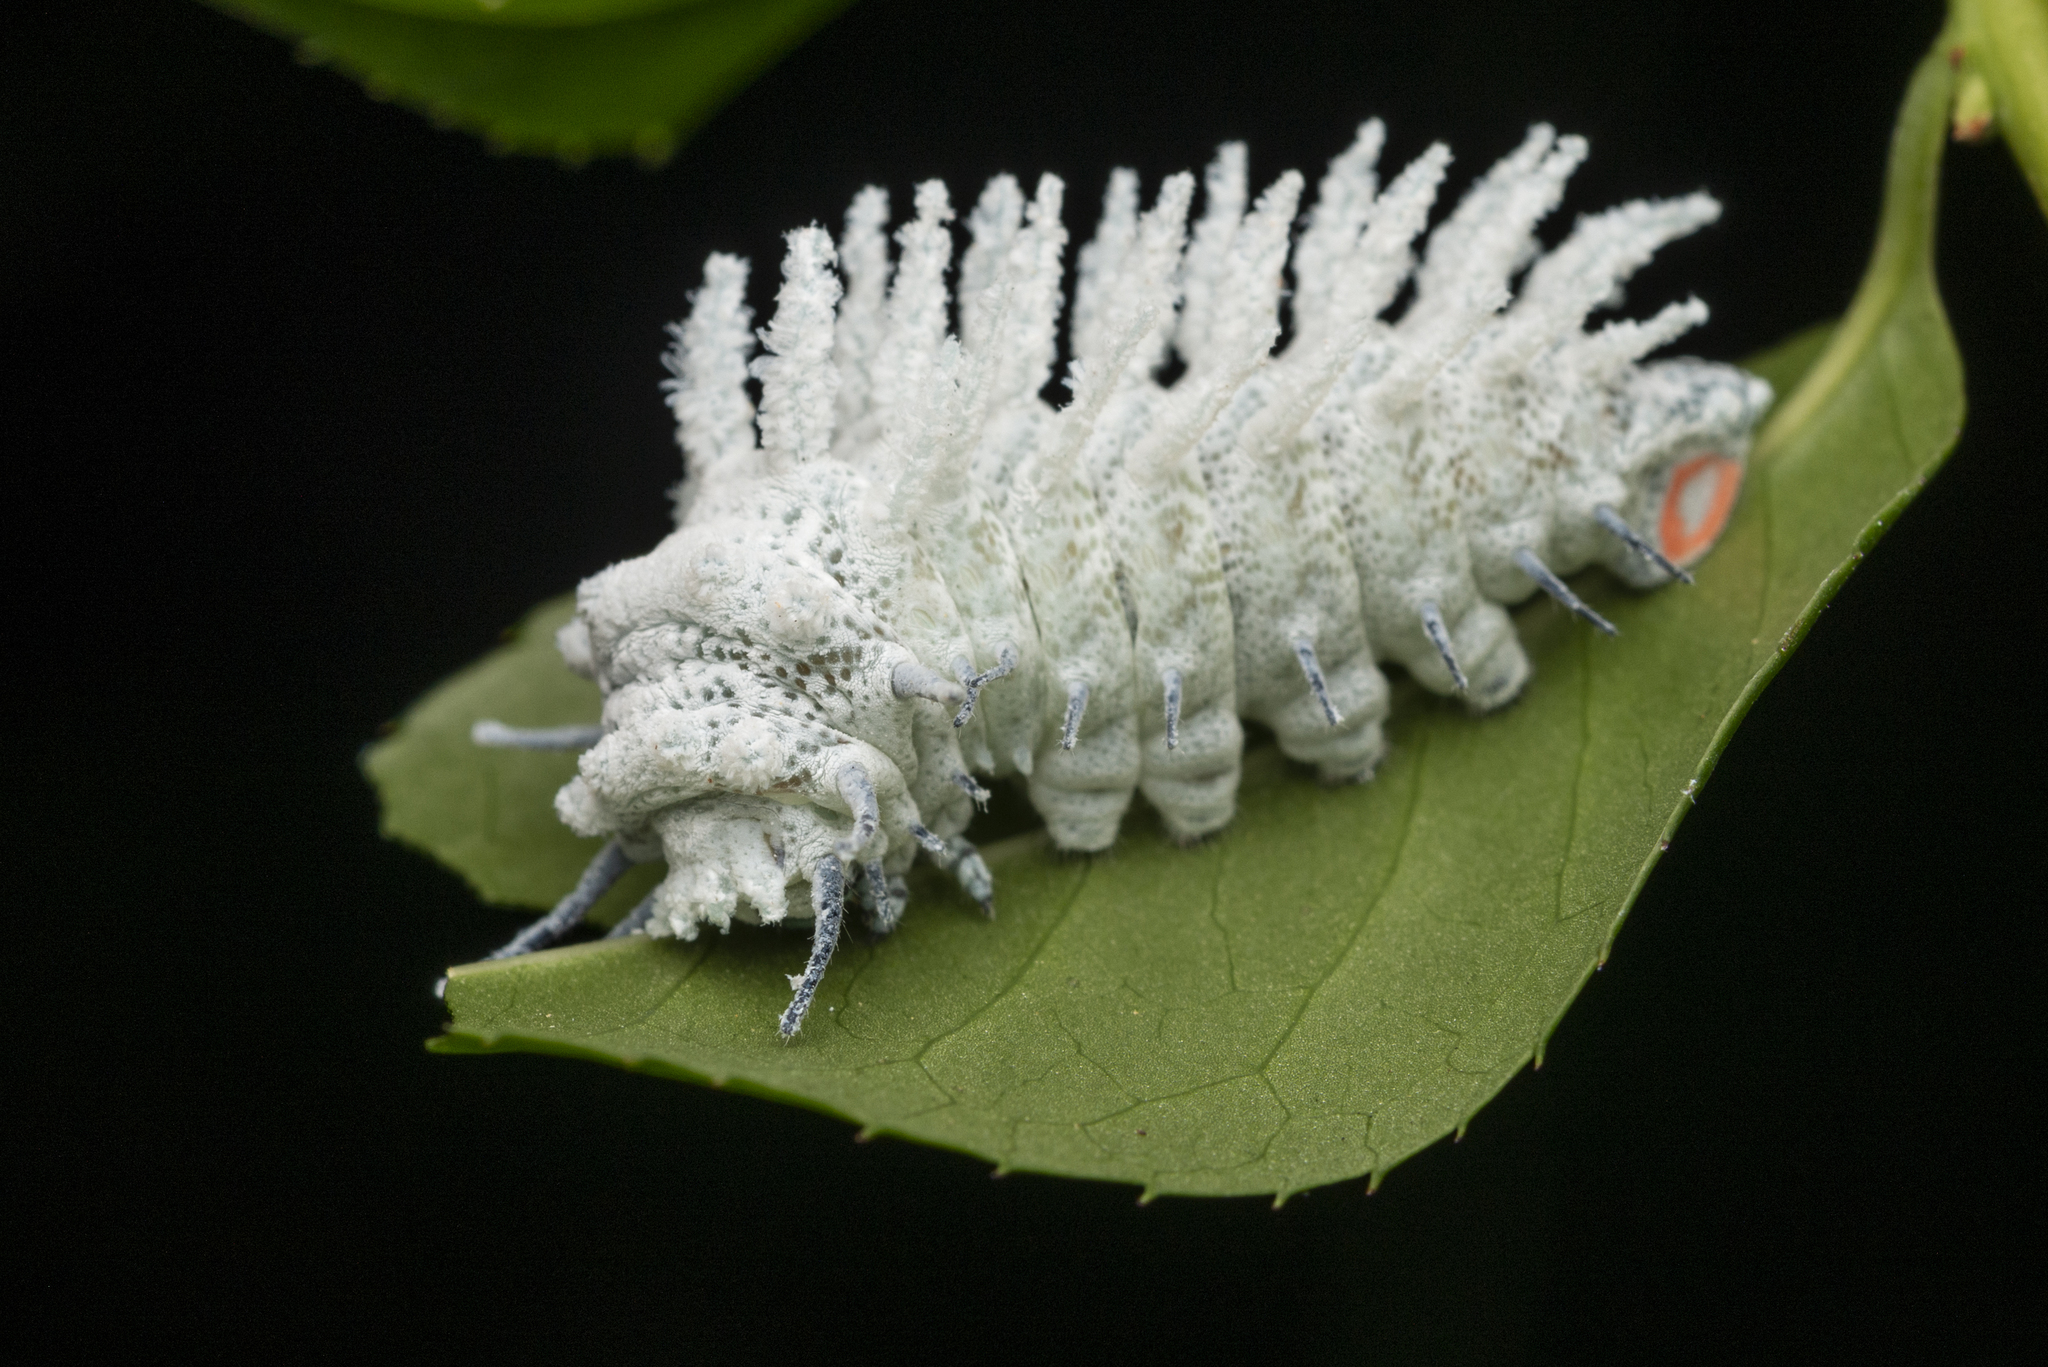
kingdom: Animalia
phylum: Arthropoda
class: Insecta
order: Lepidoptera
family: Saturniidae
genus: Attacus
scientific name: Attacus atlas
